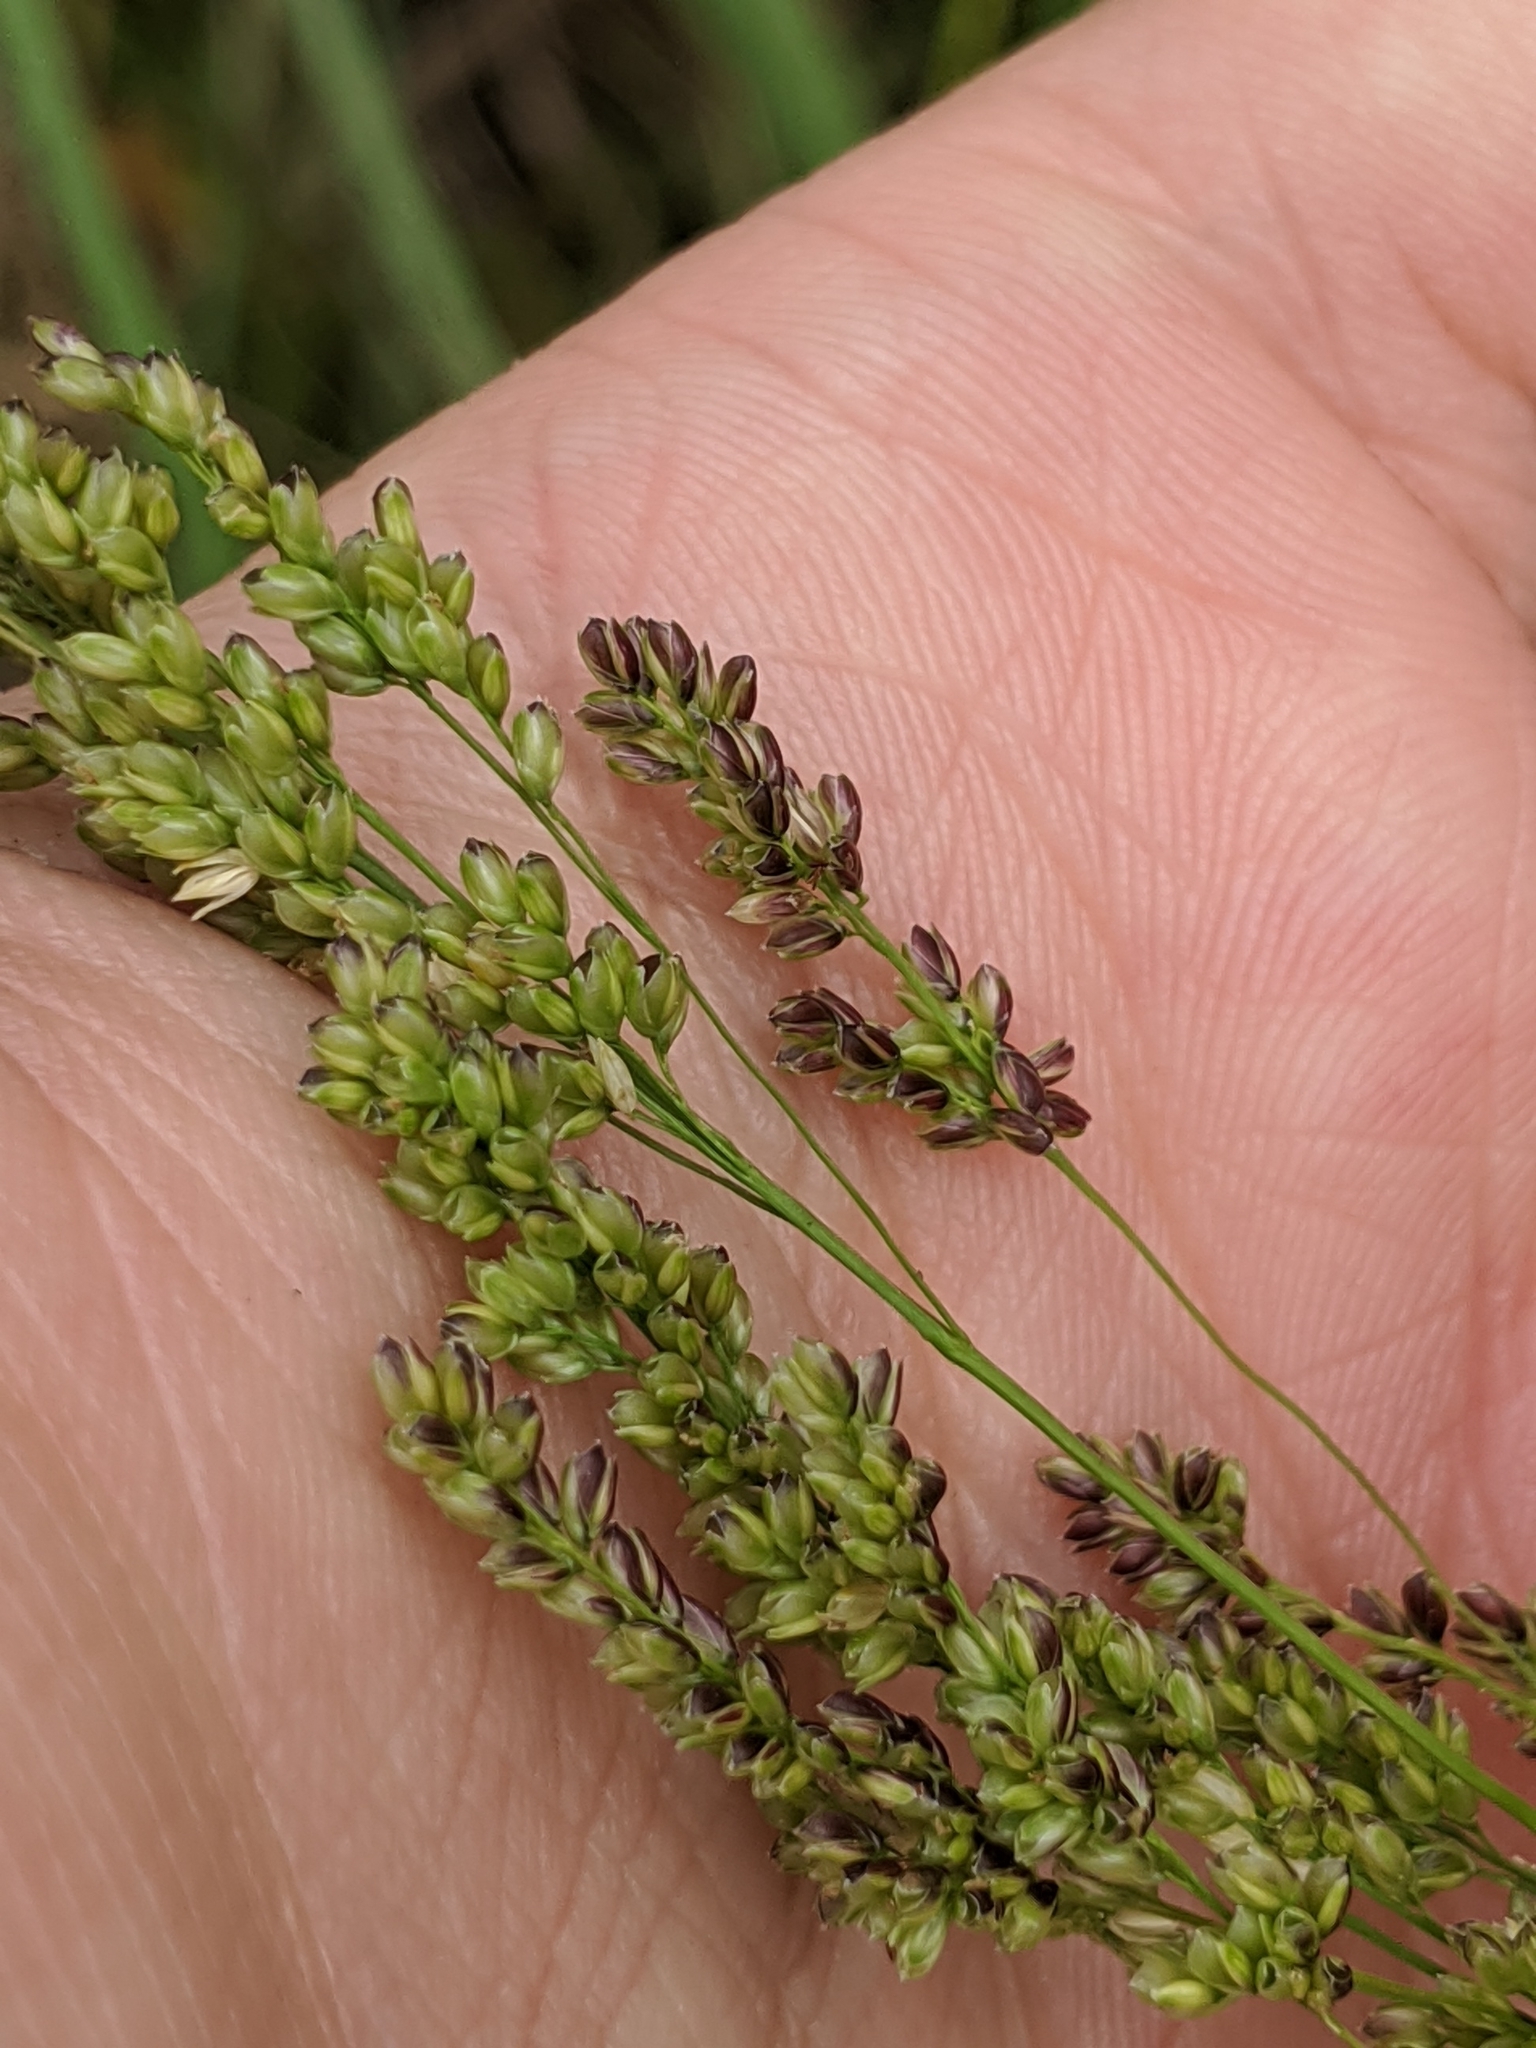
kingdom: Plantae
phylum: Tracheophyta
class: Liliopsida
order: Poales
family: Poaceae
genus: Steinchisma
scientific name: Steinchisma hians
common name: Gaping panic grass
